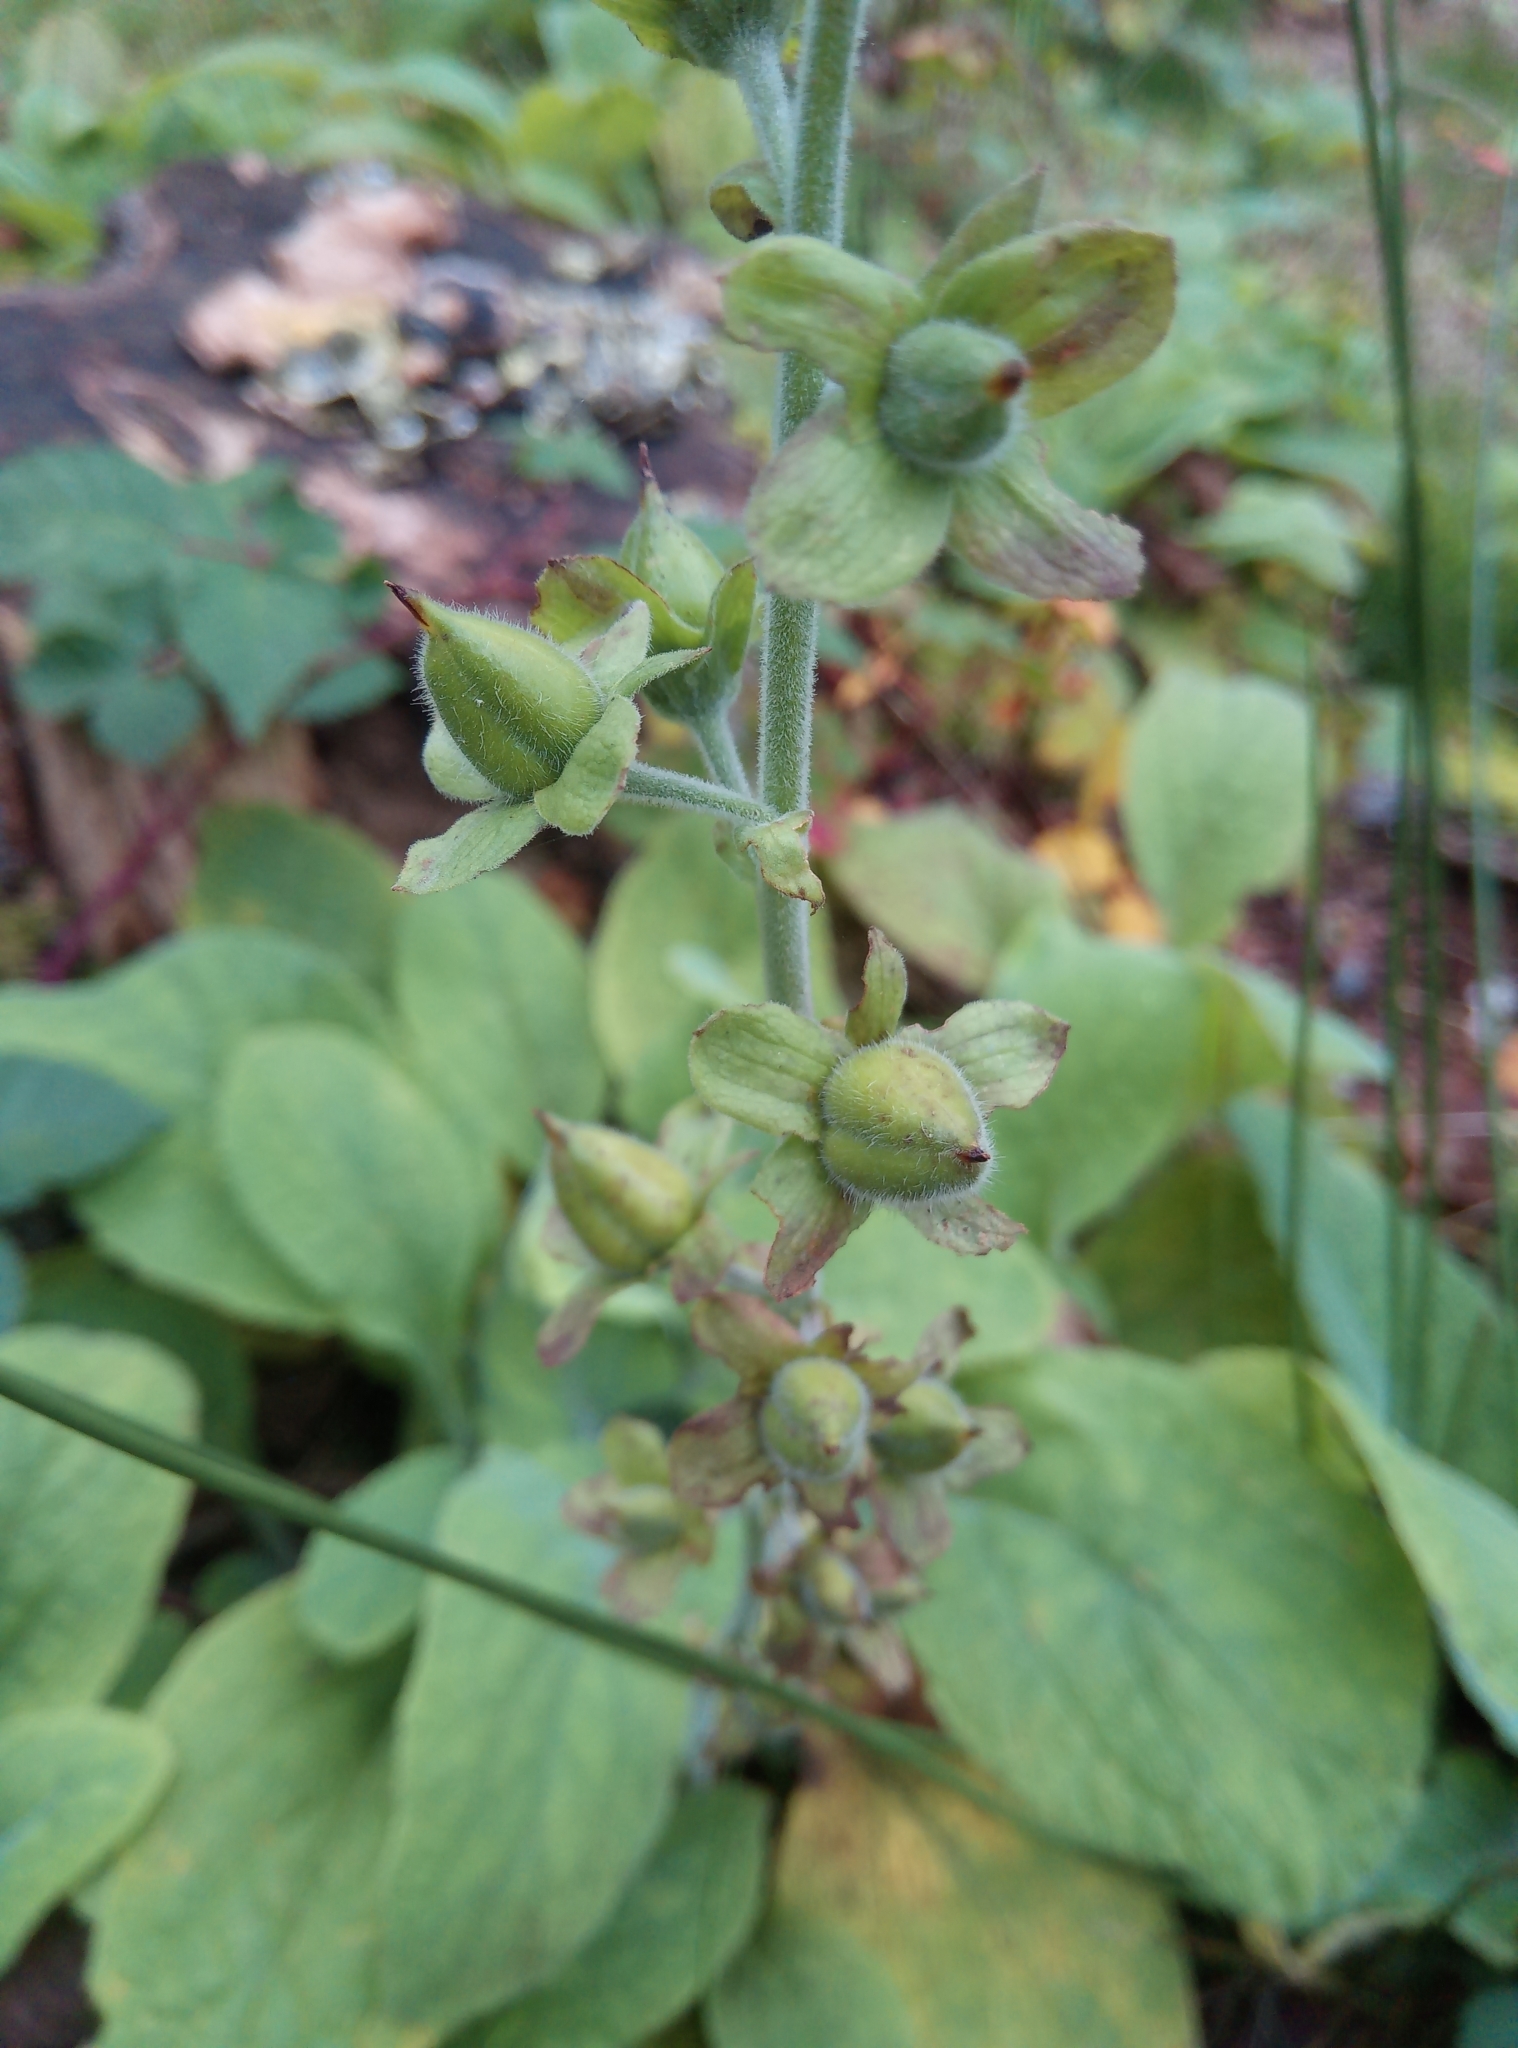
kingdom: Plantae
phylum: Tracheophyta
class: Magnoliopsida
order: Lamiales
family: Plantaginaceae
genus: Digitalis
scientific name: Digitalis purpurea
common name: Foxglove
